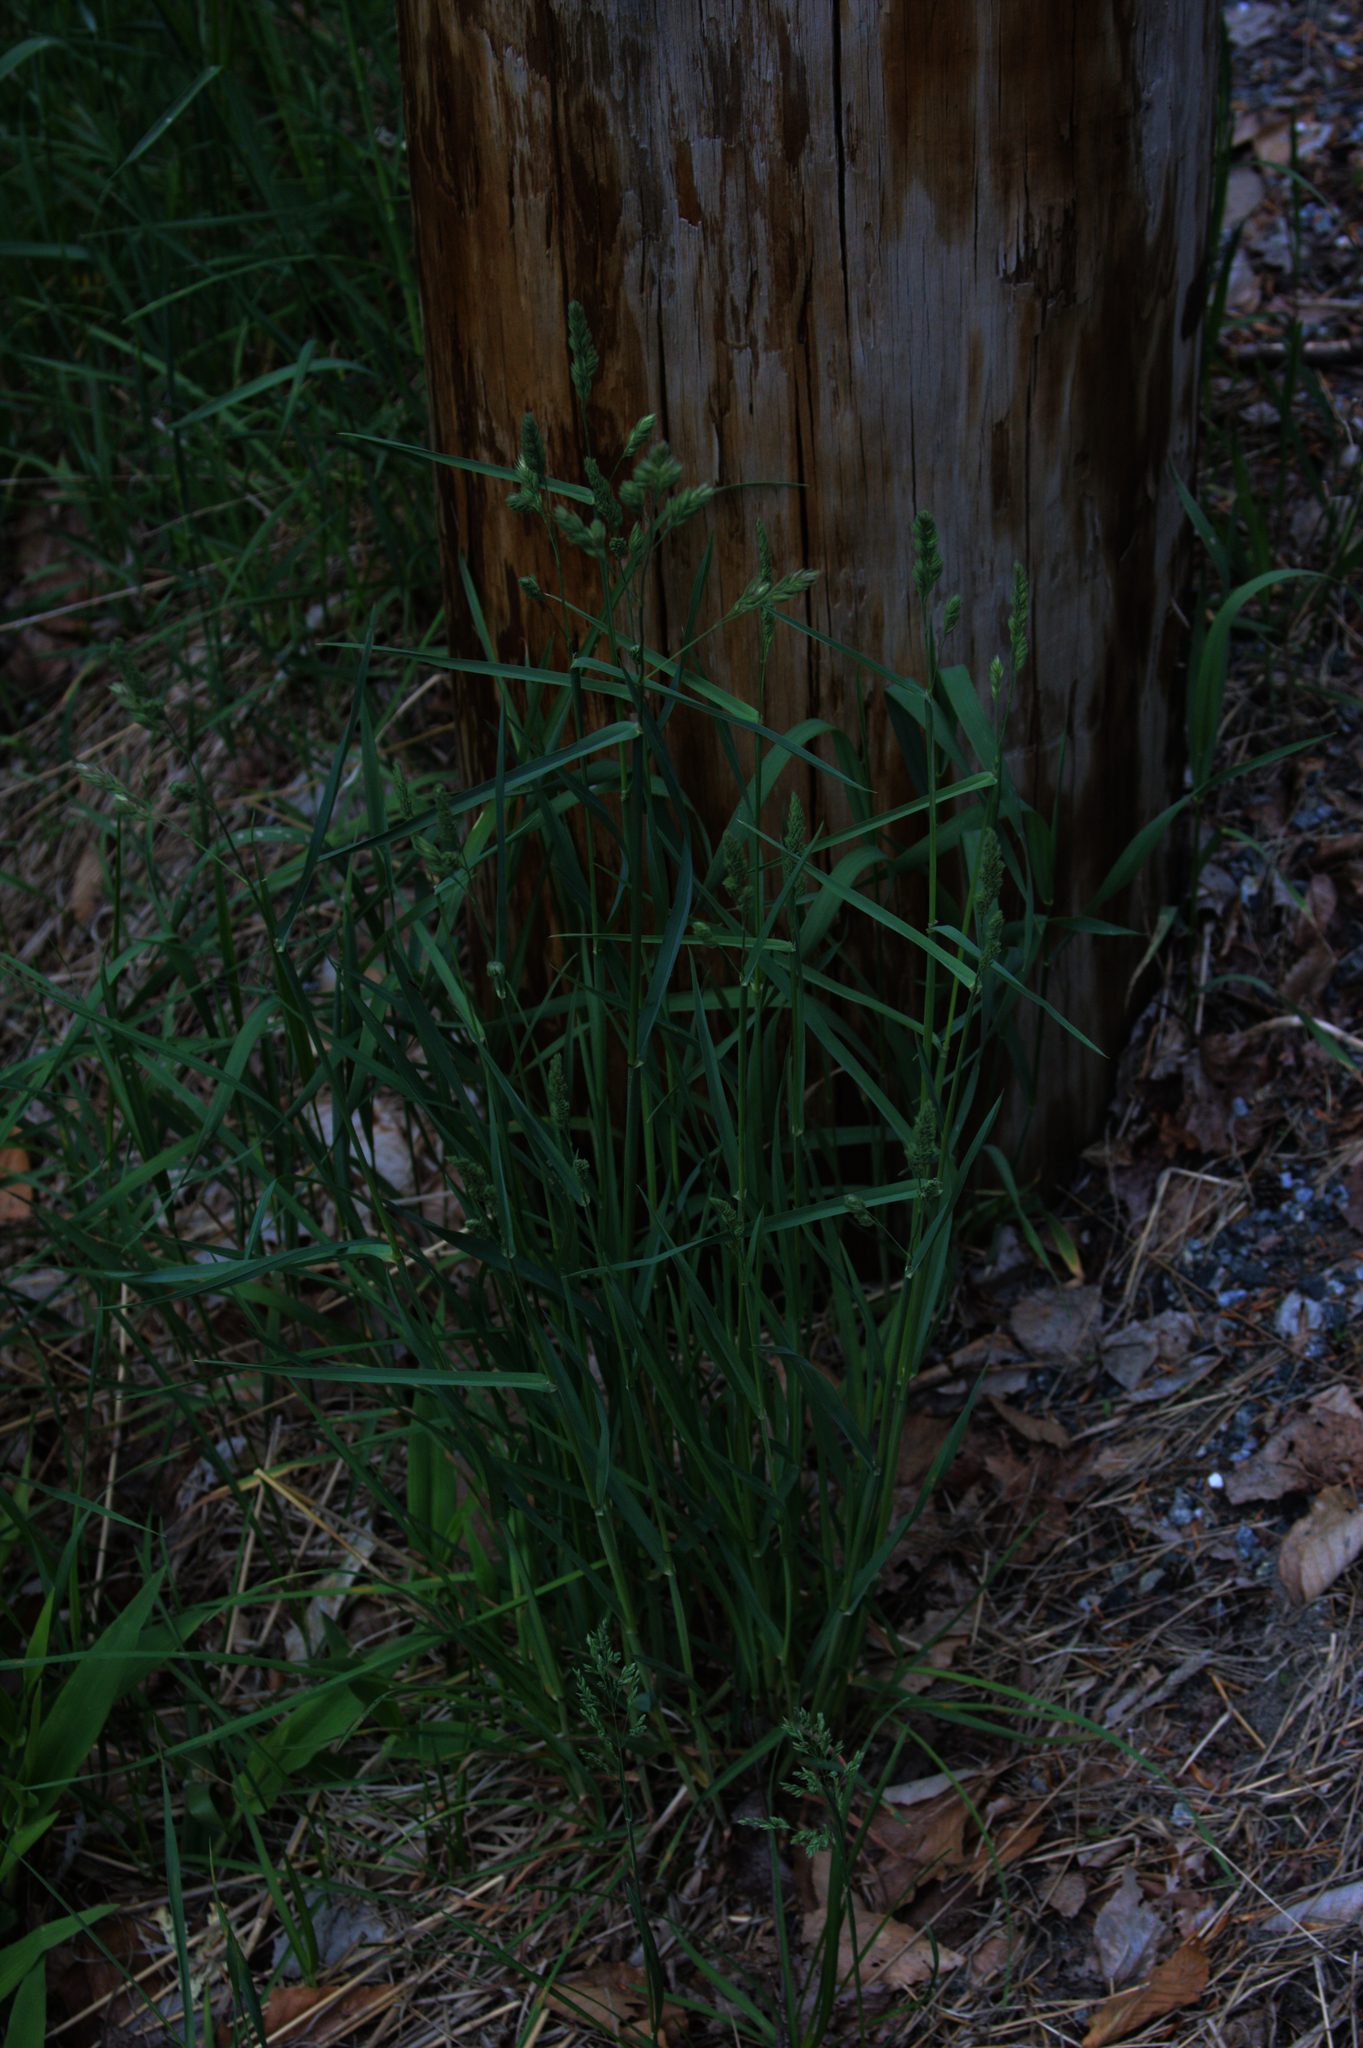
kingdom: Plantae
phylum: Tracheophyta
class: Liliopsida
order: Poales
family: Poaceae
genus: Dactylis
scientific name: Dactylis glomerata
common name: Orchardgrass
